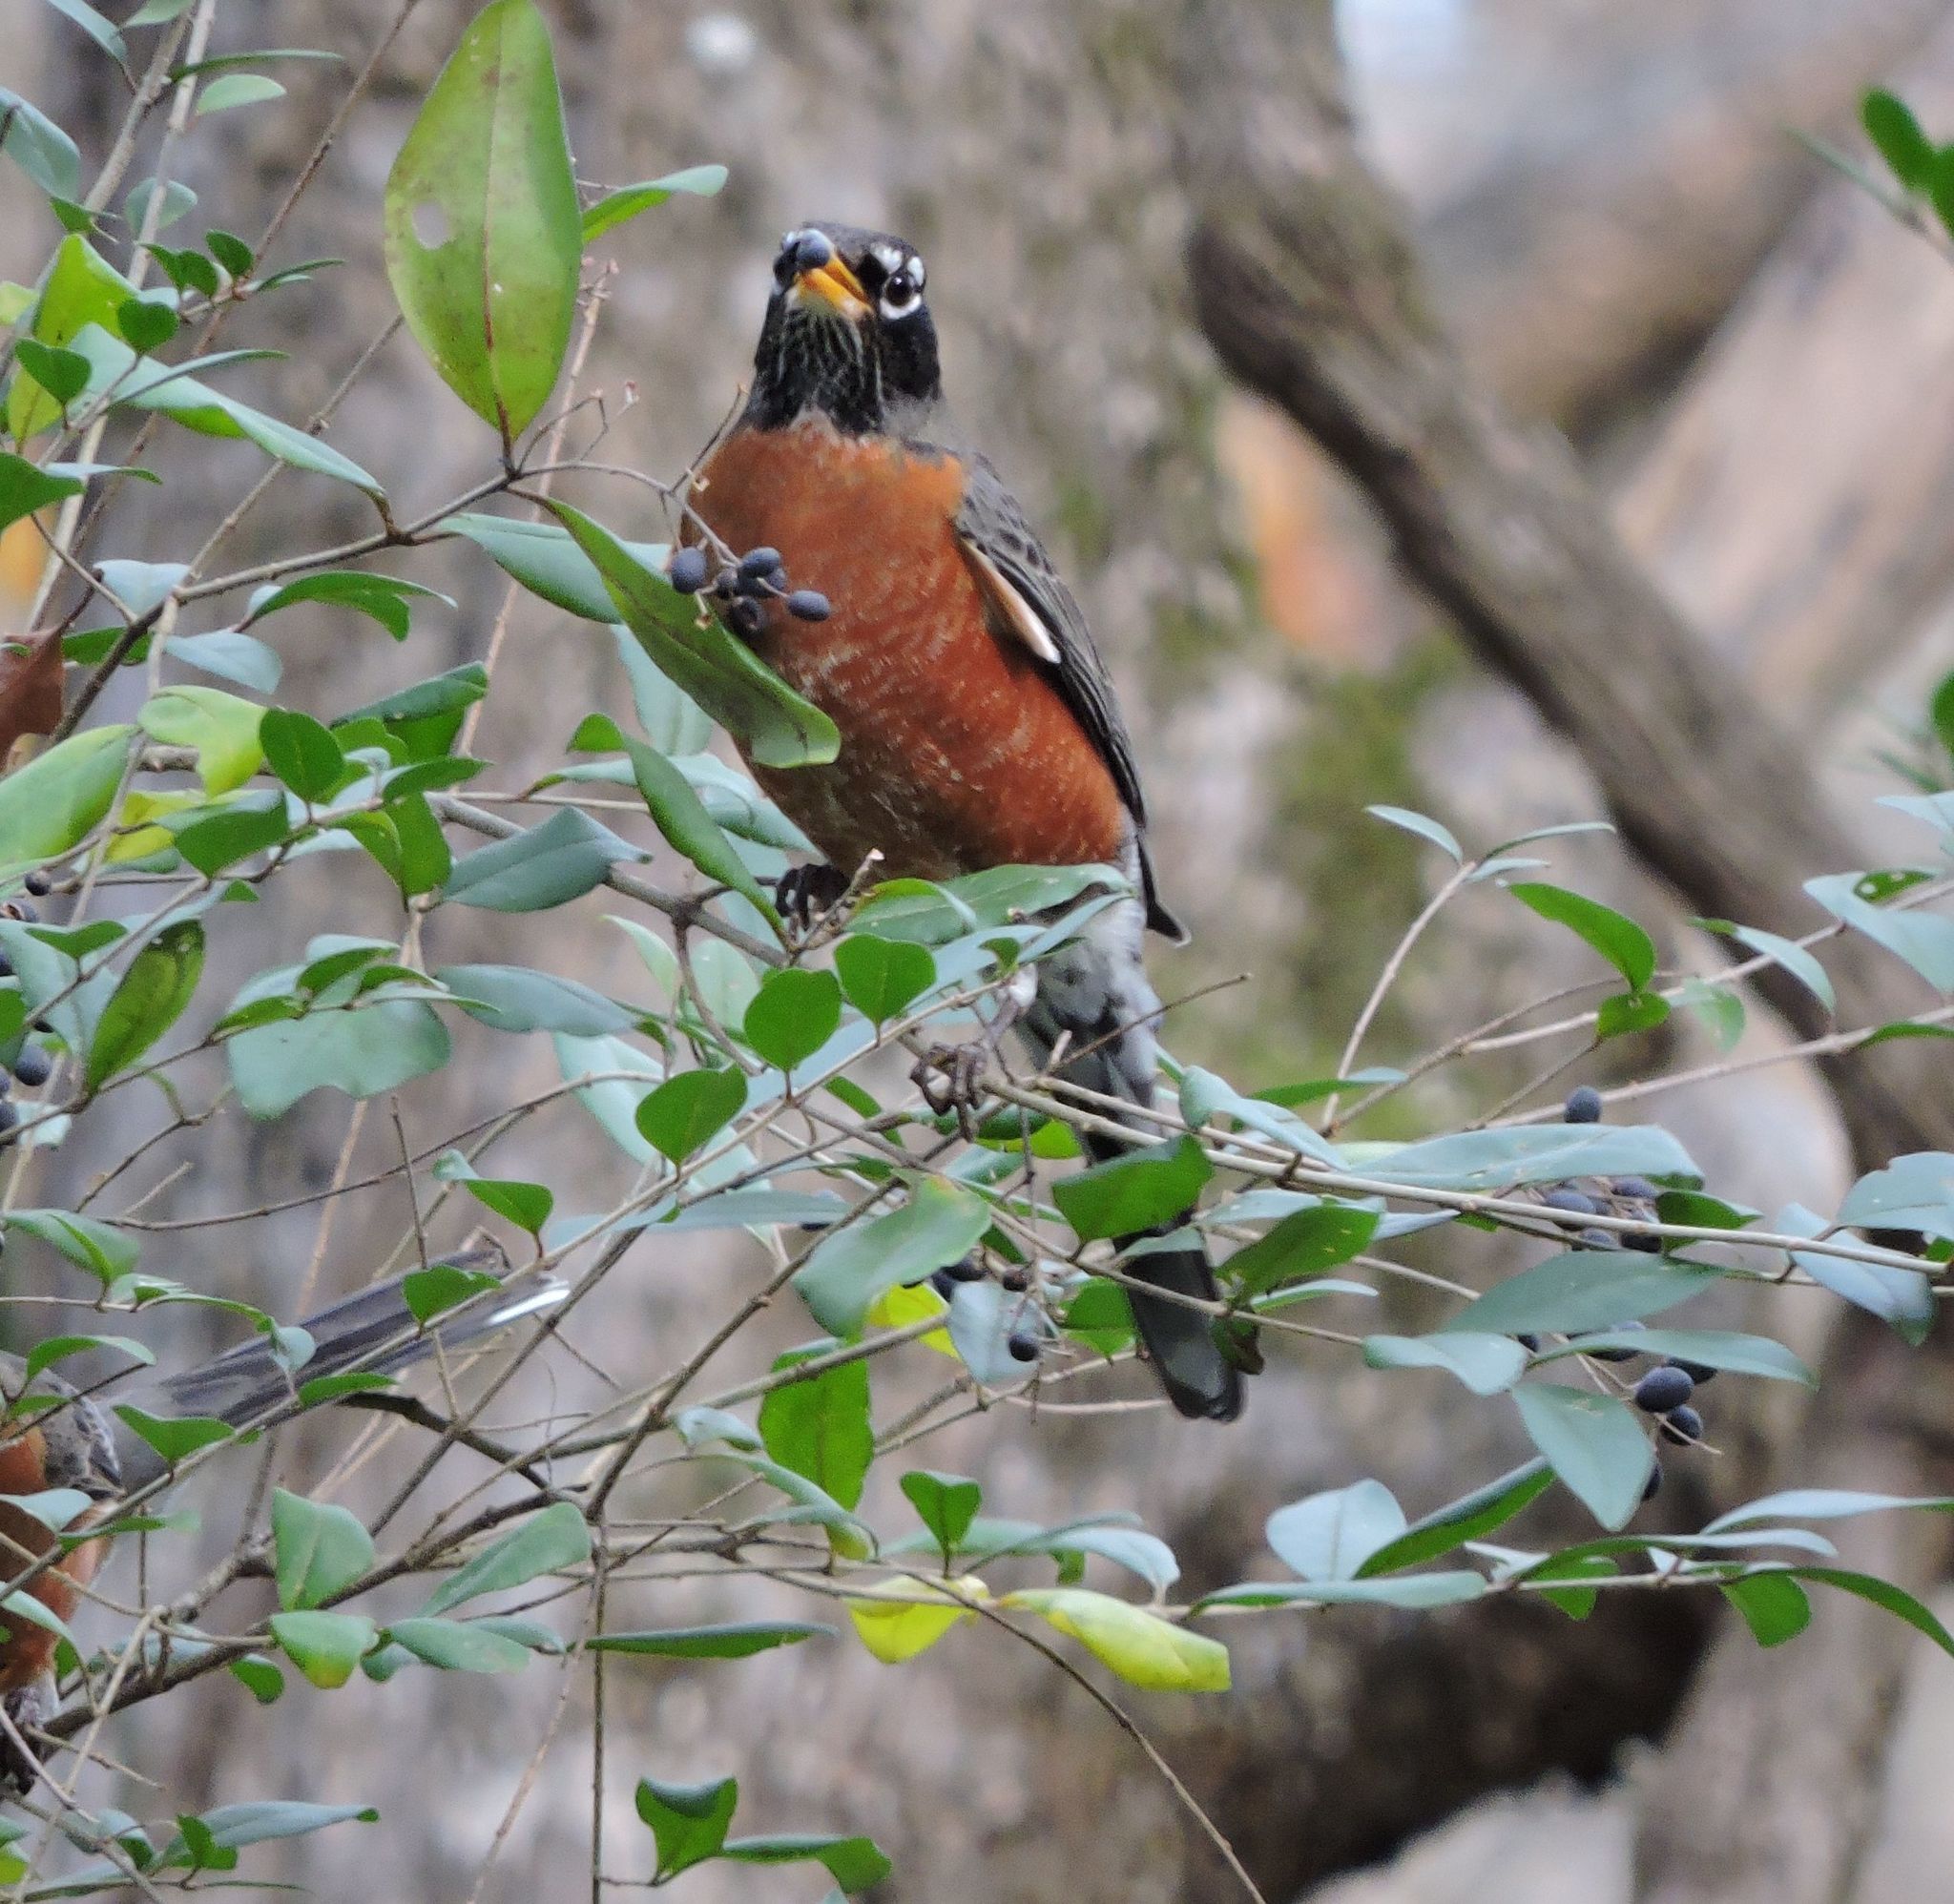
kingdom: Animalia
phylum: Chordata
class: Aves
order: Passeriformes
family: Turdidae
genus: Turdus
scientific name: Turdus migratorius
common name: American robin
